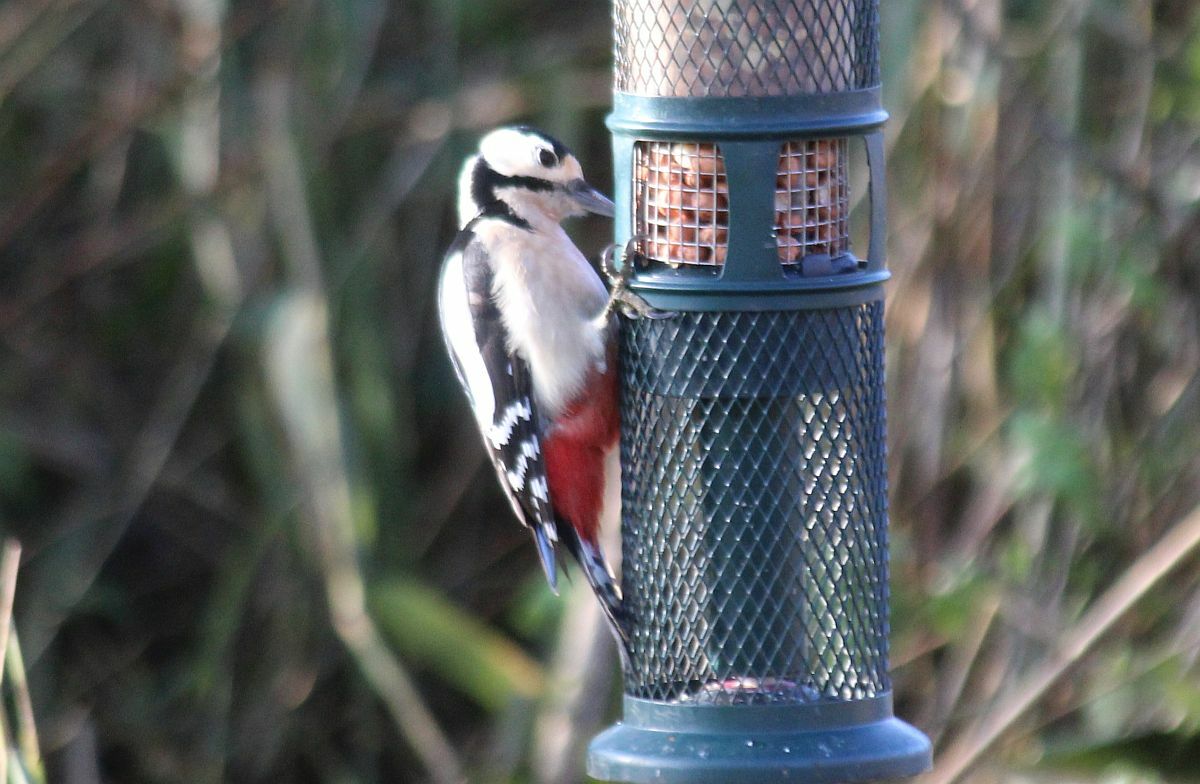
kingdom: Animalia
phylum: Chordata
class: Aves
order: Piciformes
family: Picidae
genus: Dendrocopos
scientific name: Dendrocopos major
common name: Great spotted woodpecker
